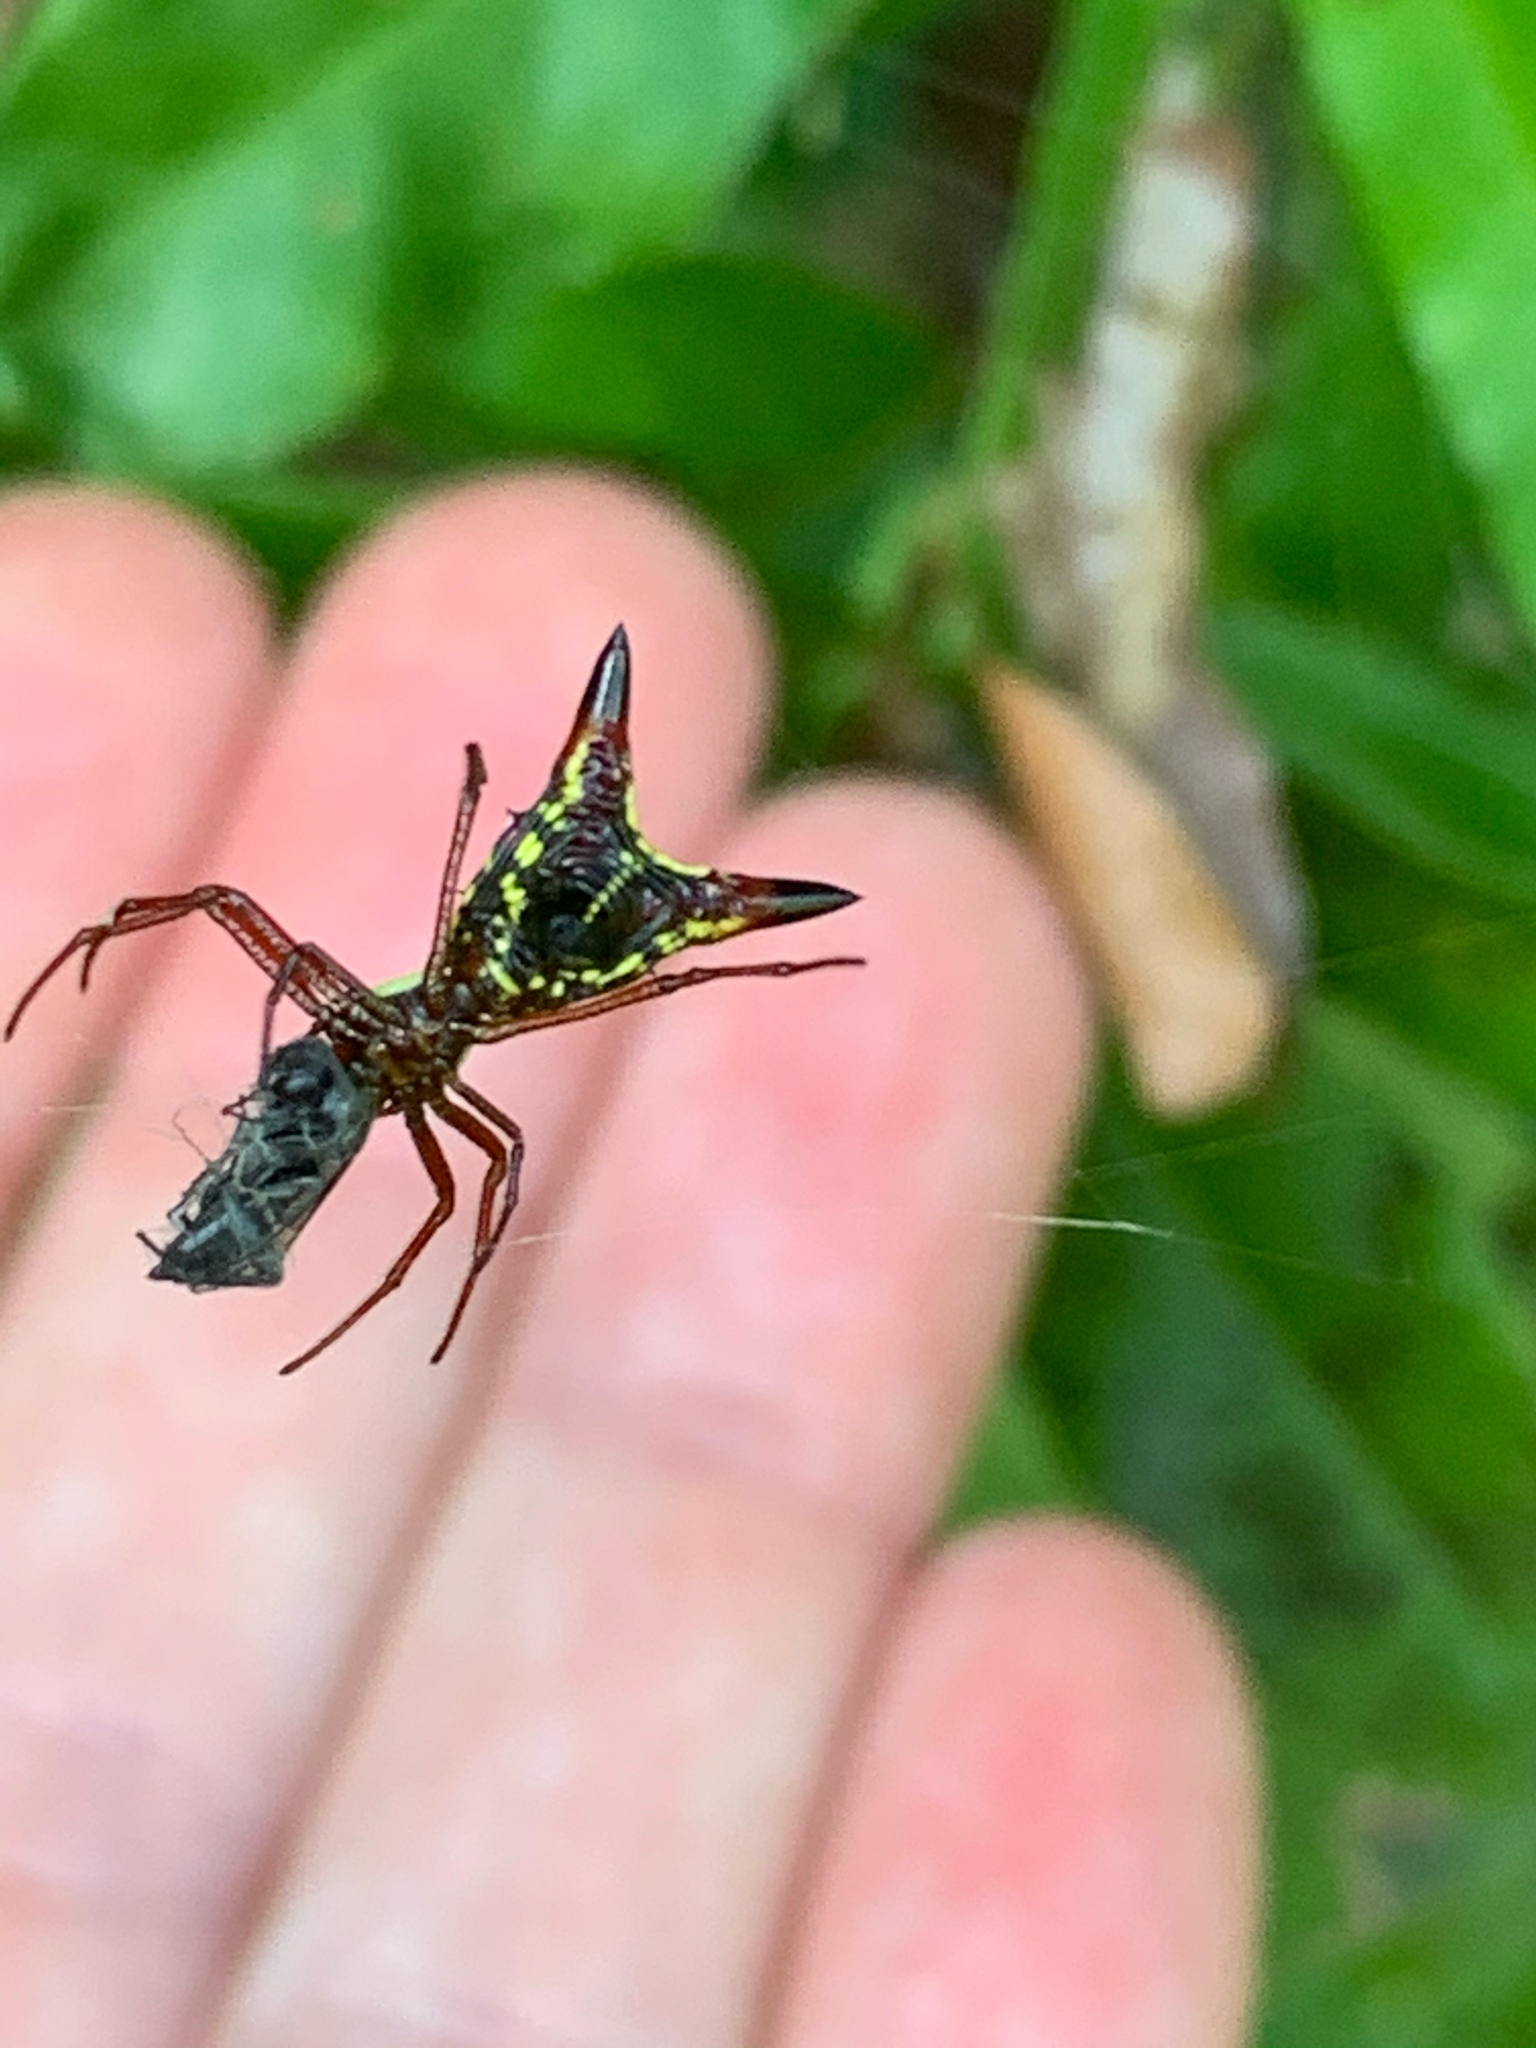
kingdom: Animalia
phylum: Arthropoda
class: Arachnida
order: Araneae
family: Araneidae
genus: Micrathena
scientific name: Micrathena sagittata
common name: Orb weavers
